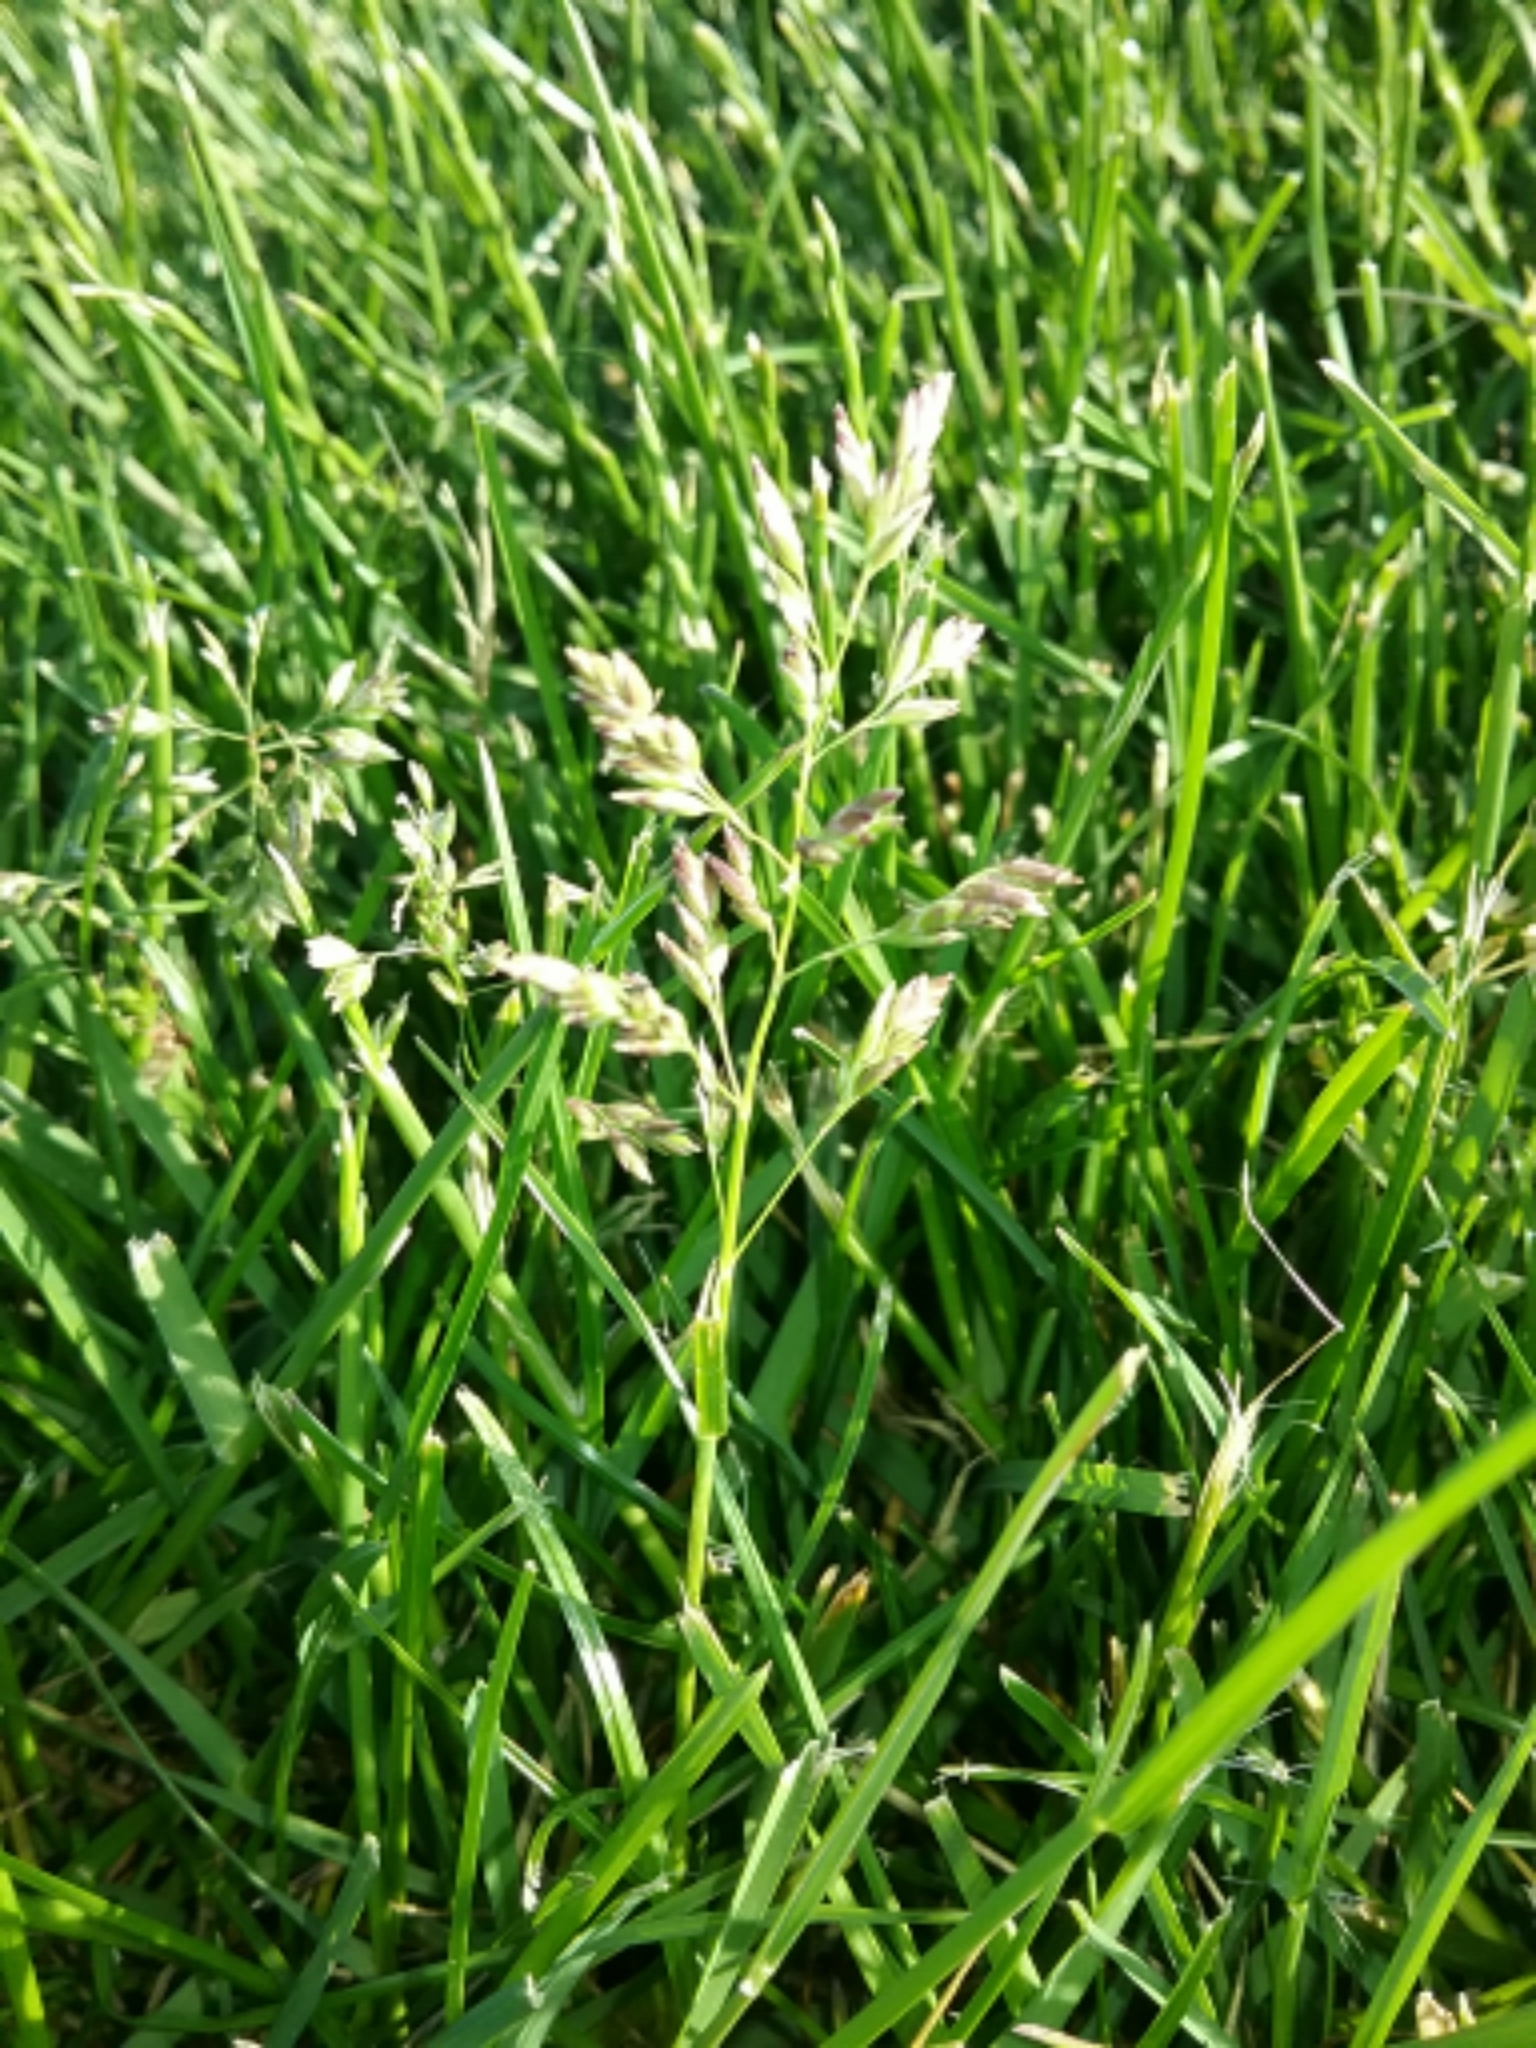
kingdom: Plantae
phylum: Tracheophyta
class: Liliopsida
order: Poales
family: Poaceae
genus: Poa
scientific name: Poa annua
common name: Annual bluegrass
